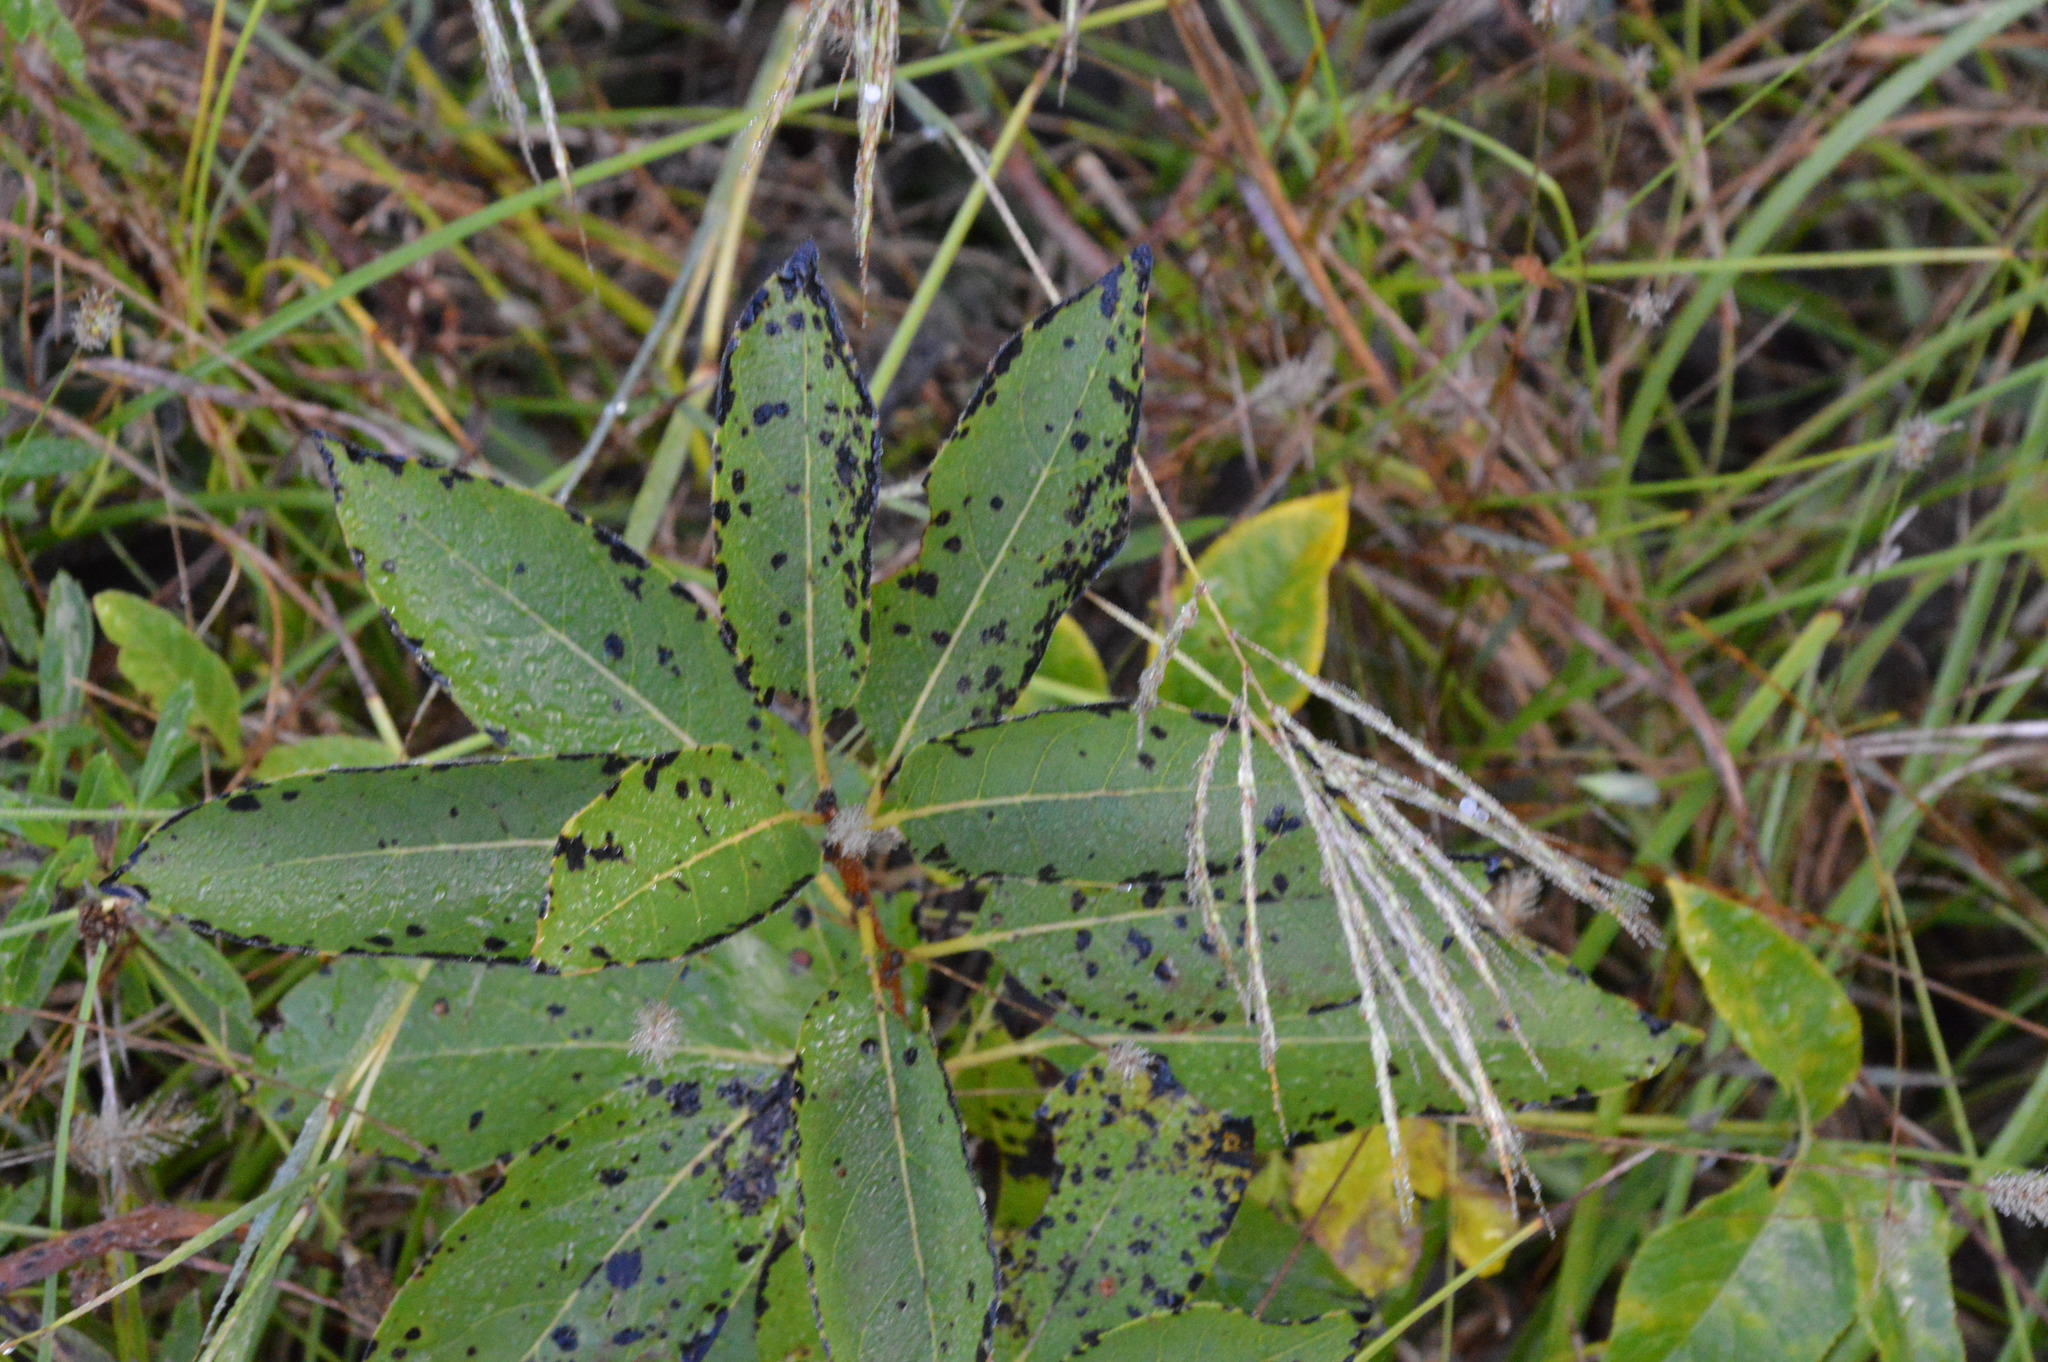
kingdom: Plantae
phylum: Tracheophyta
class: Magnoliopsida
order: Ericales
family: Ebenaceae
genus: Diospyros
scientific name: Diospyros virginiana
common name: Persimmon
